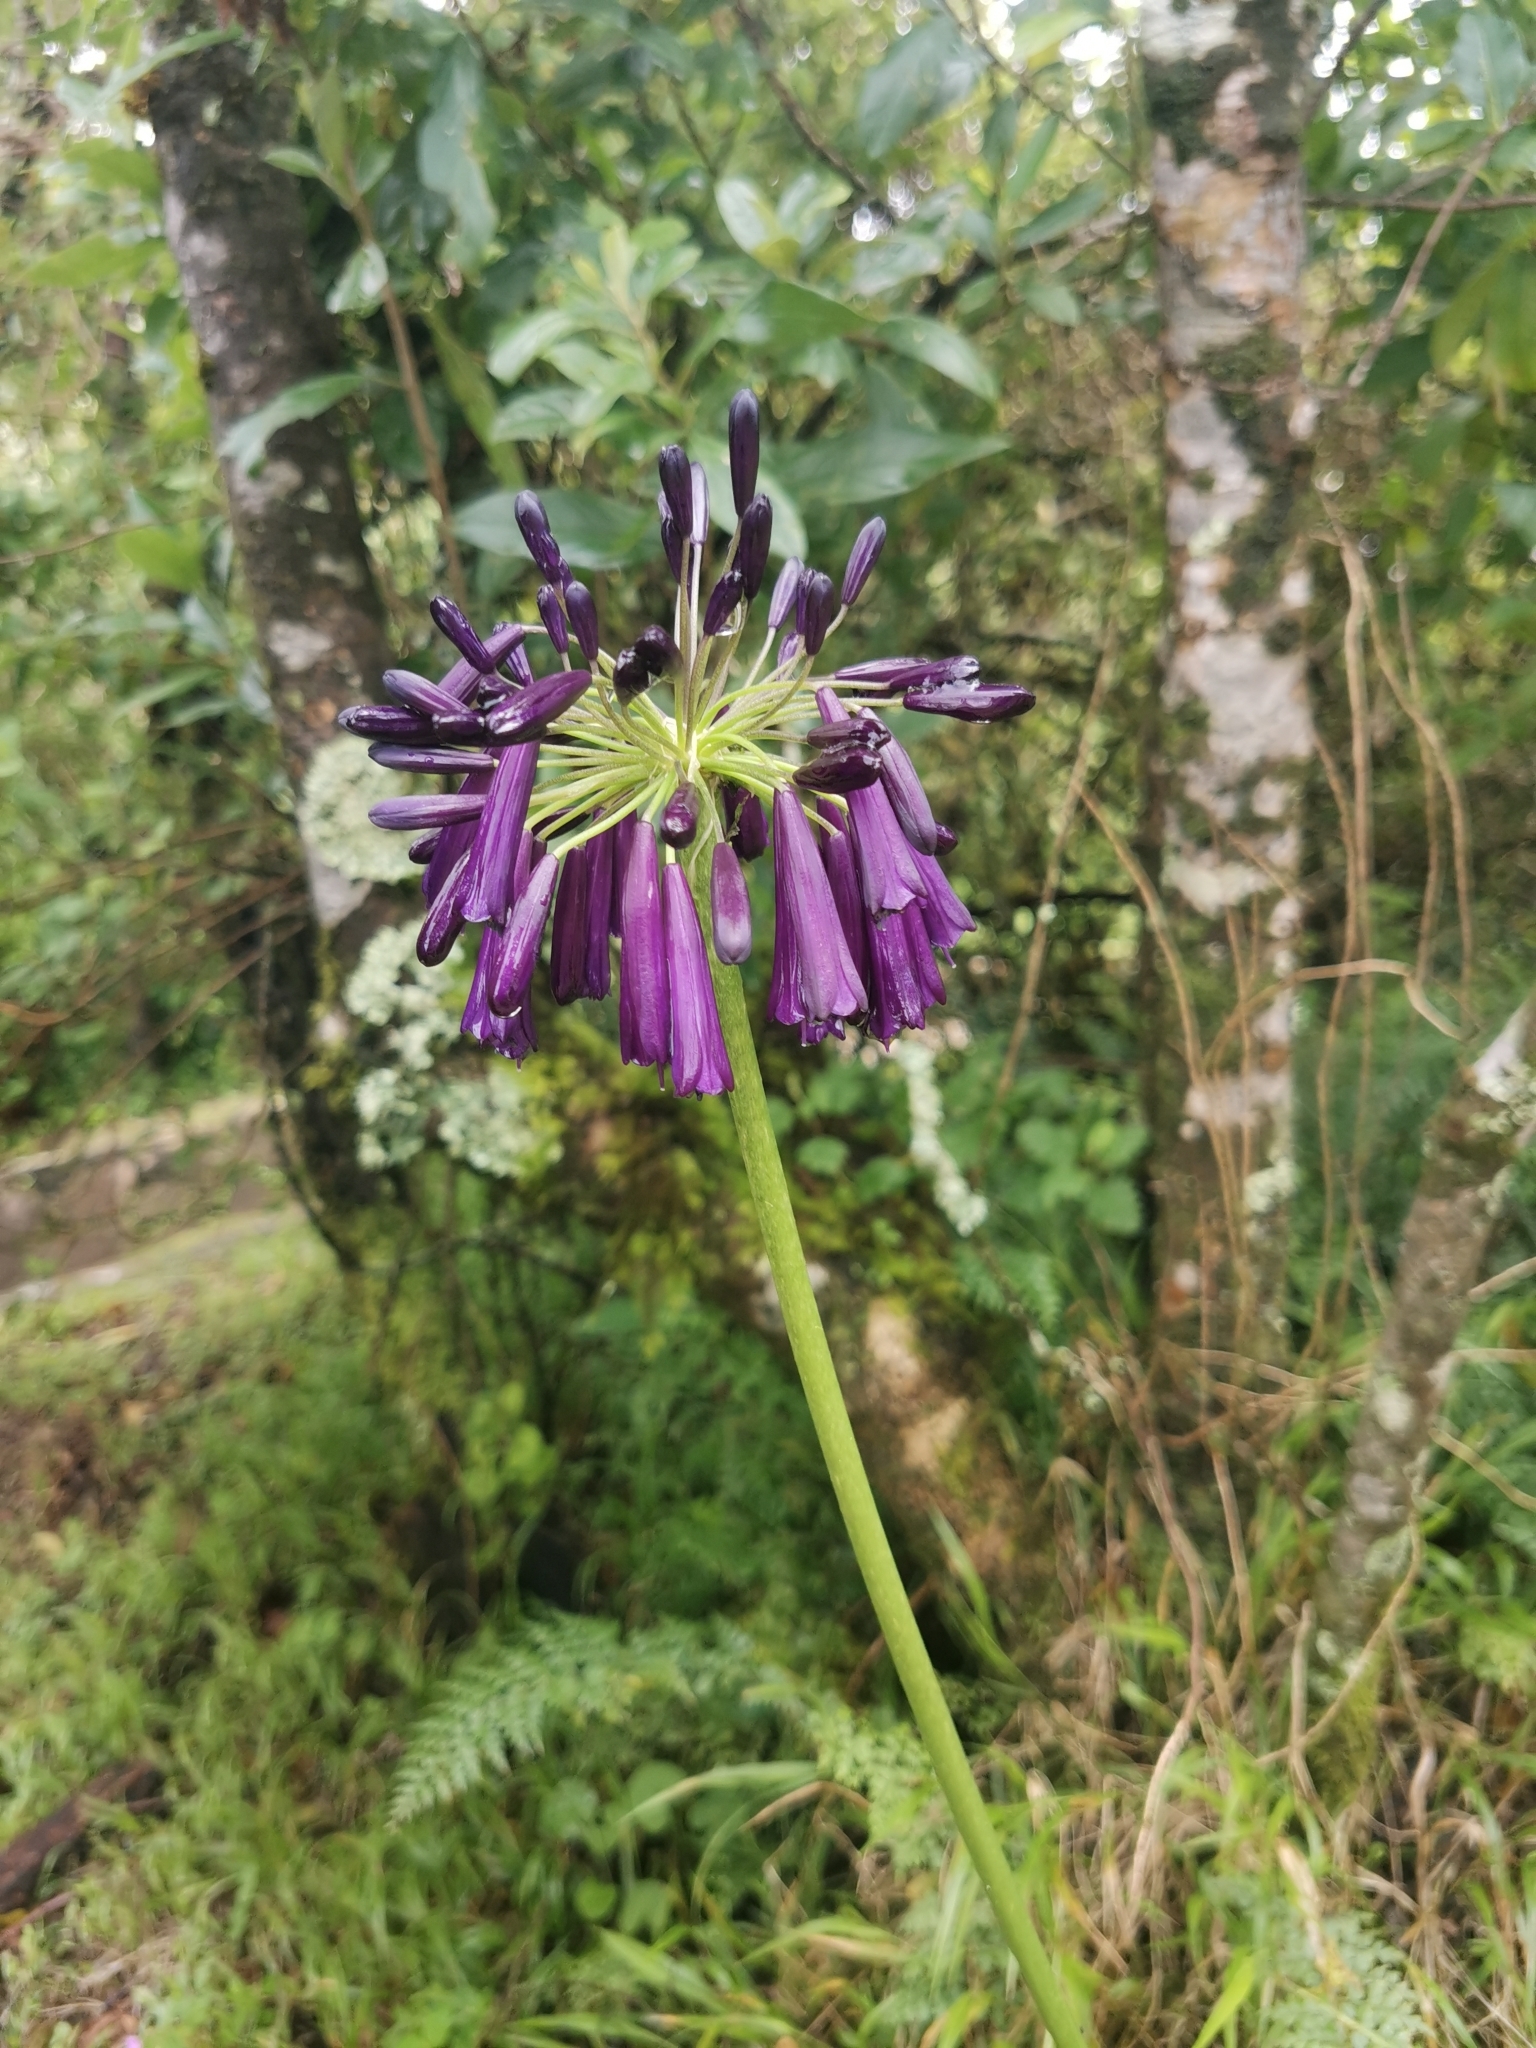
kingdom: Plantae
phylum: Tracheophyta
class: Liliopsida
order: Asparagales
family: Amaryllidaceae
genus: Agapanthus
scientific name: Agapanthus inapertus
